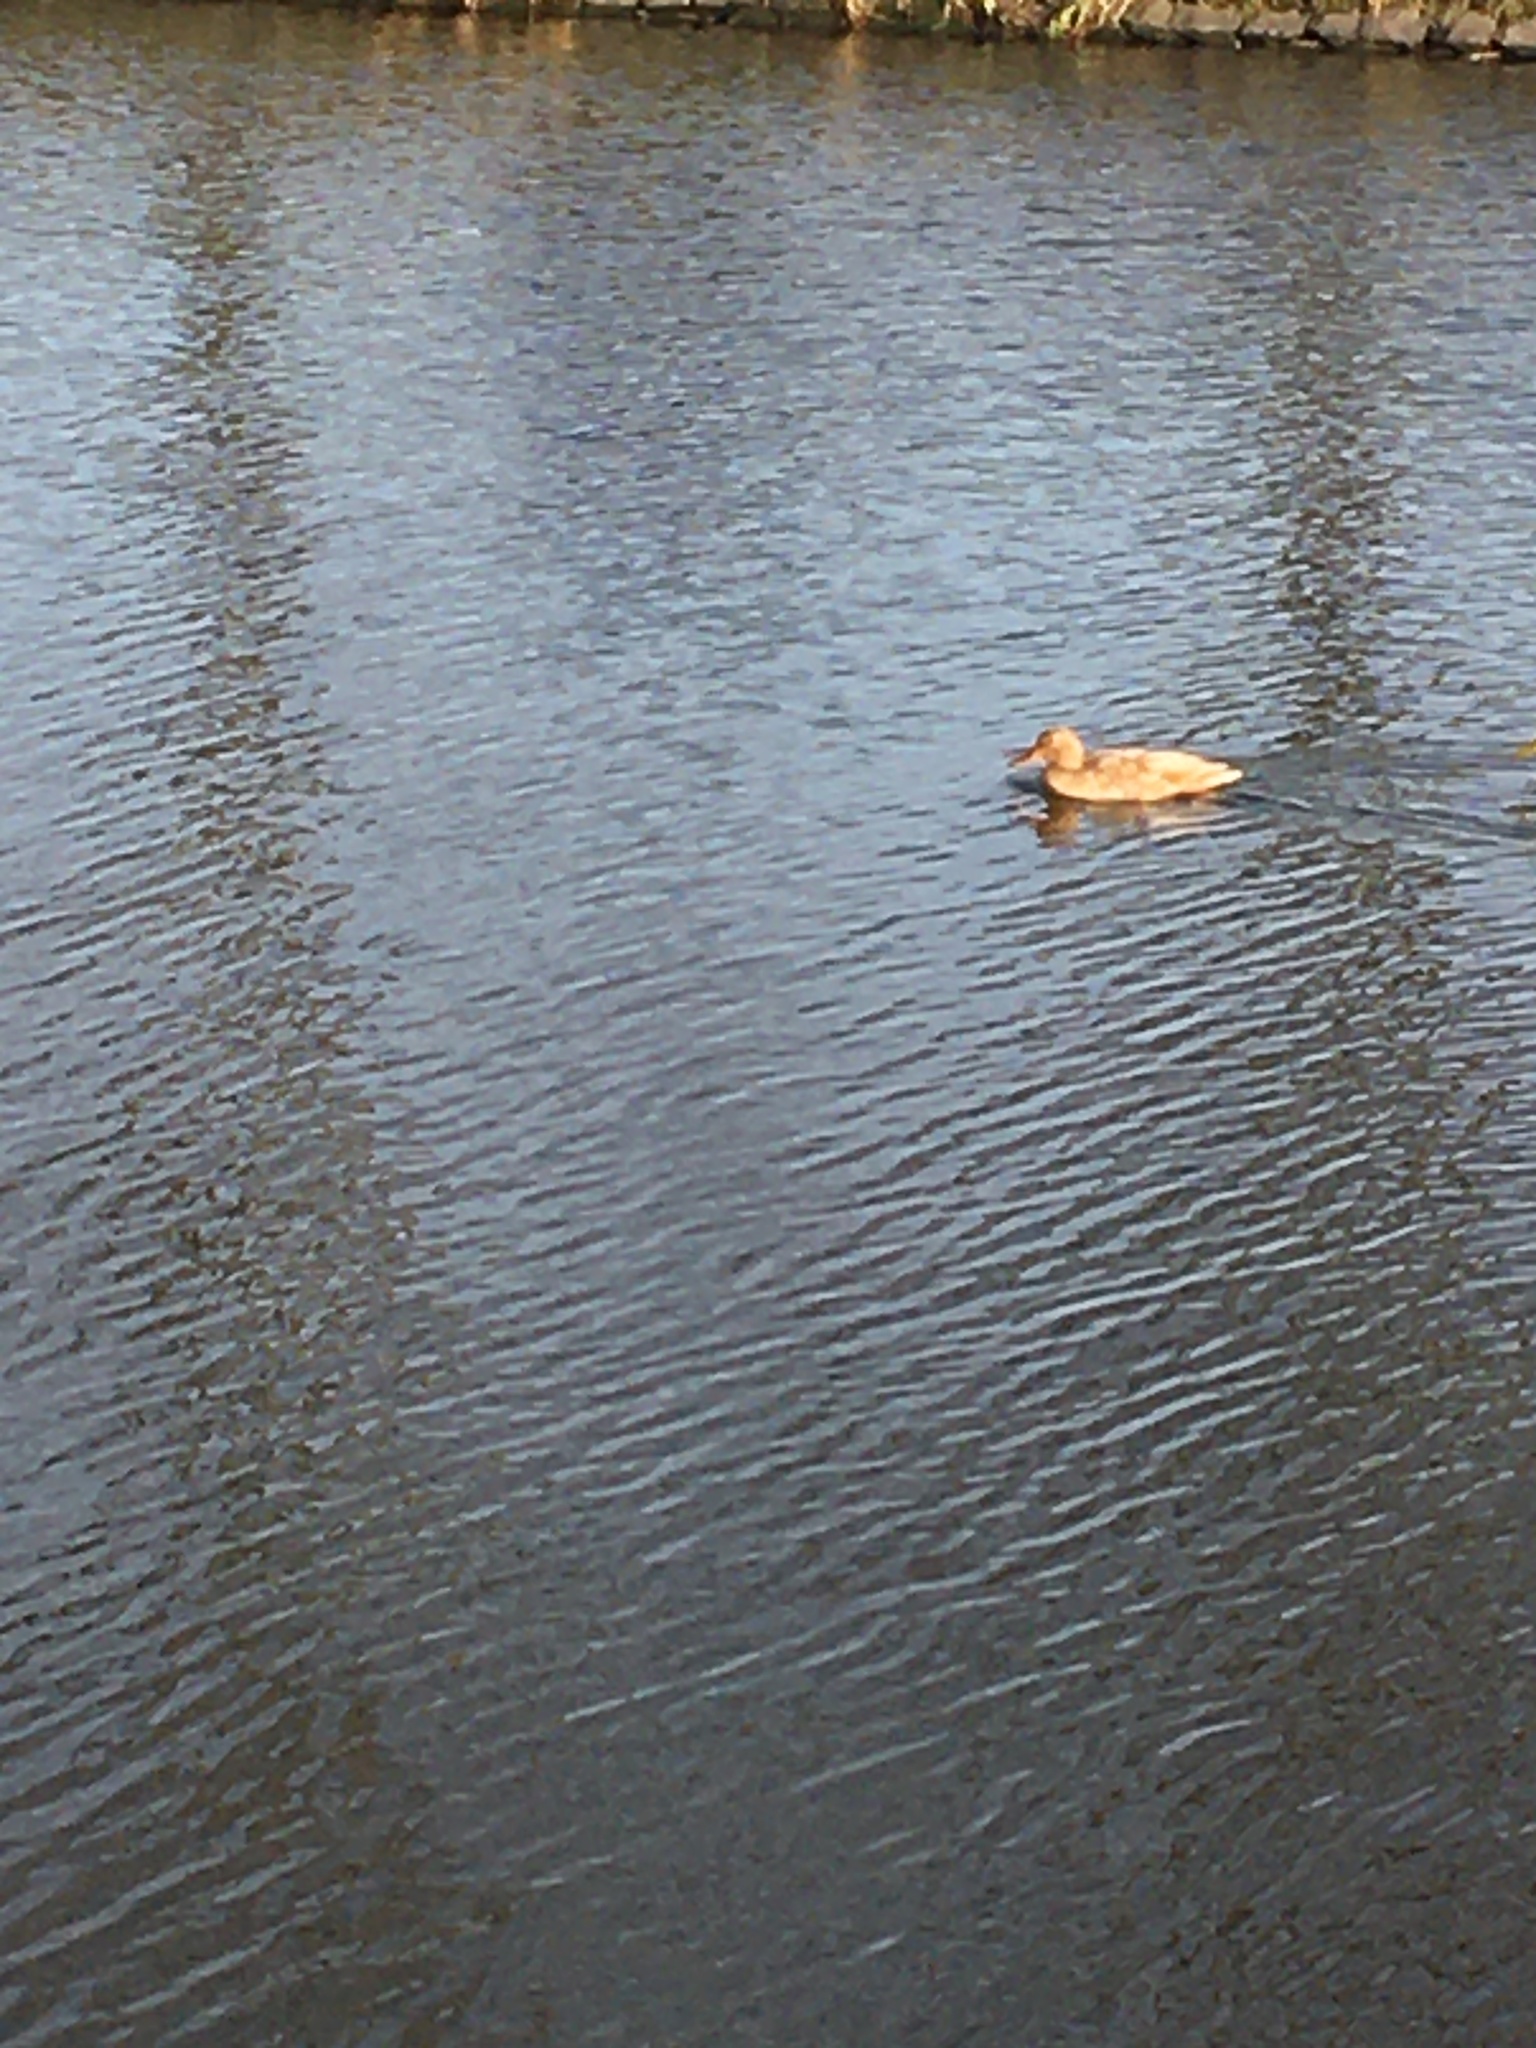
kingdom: Animalia
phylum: Chordata
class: Aves
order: Anseriformes
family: Anatidae
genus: Anas
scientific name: Anas platyrhynchos
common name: Mallard
